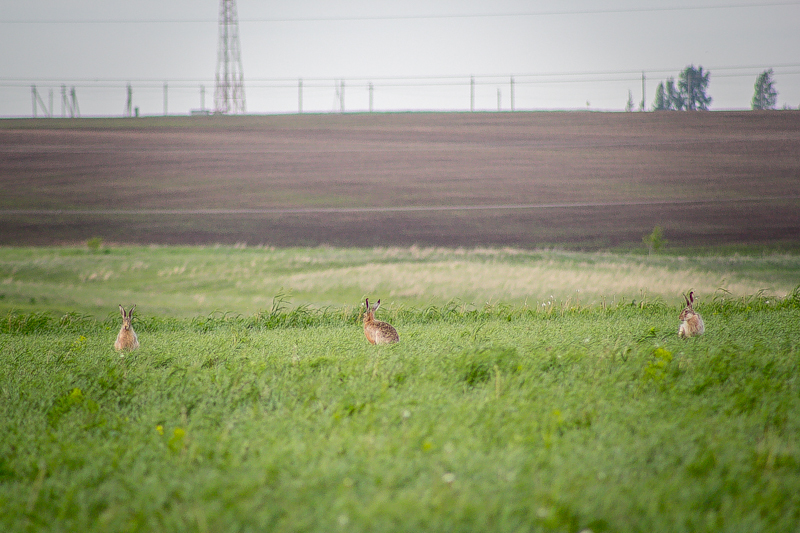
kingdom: Animalia
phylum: Chordata
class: Mammalia
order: Lagomorpha
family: Leporidae
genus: Lepus
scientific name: Lepus europaeus
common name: European hare
